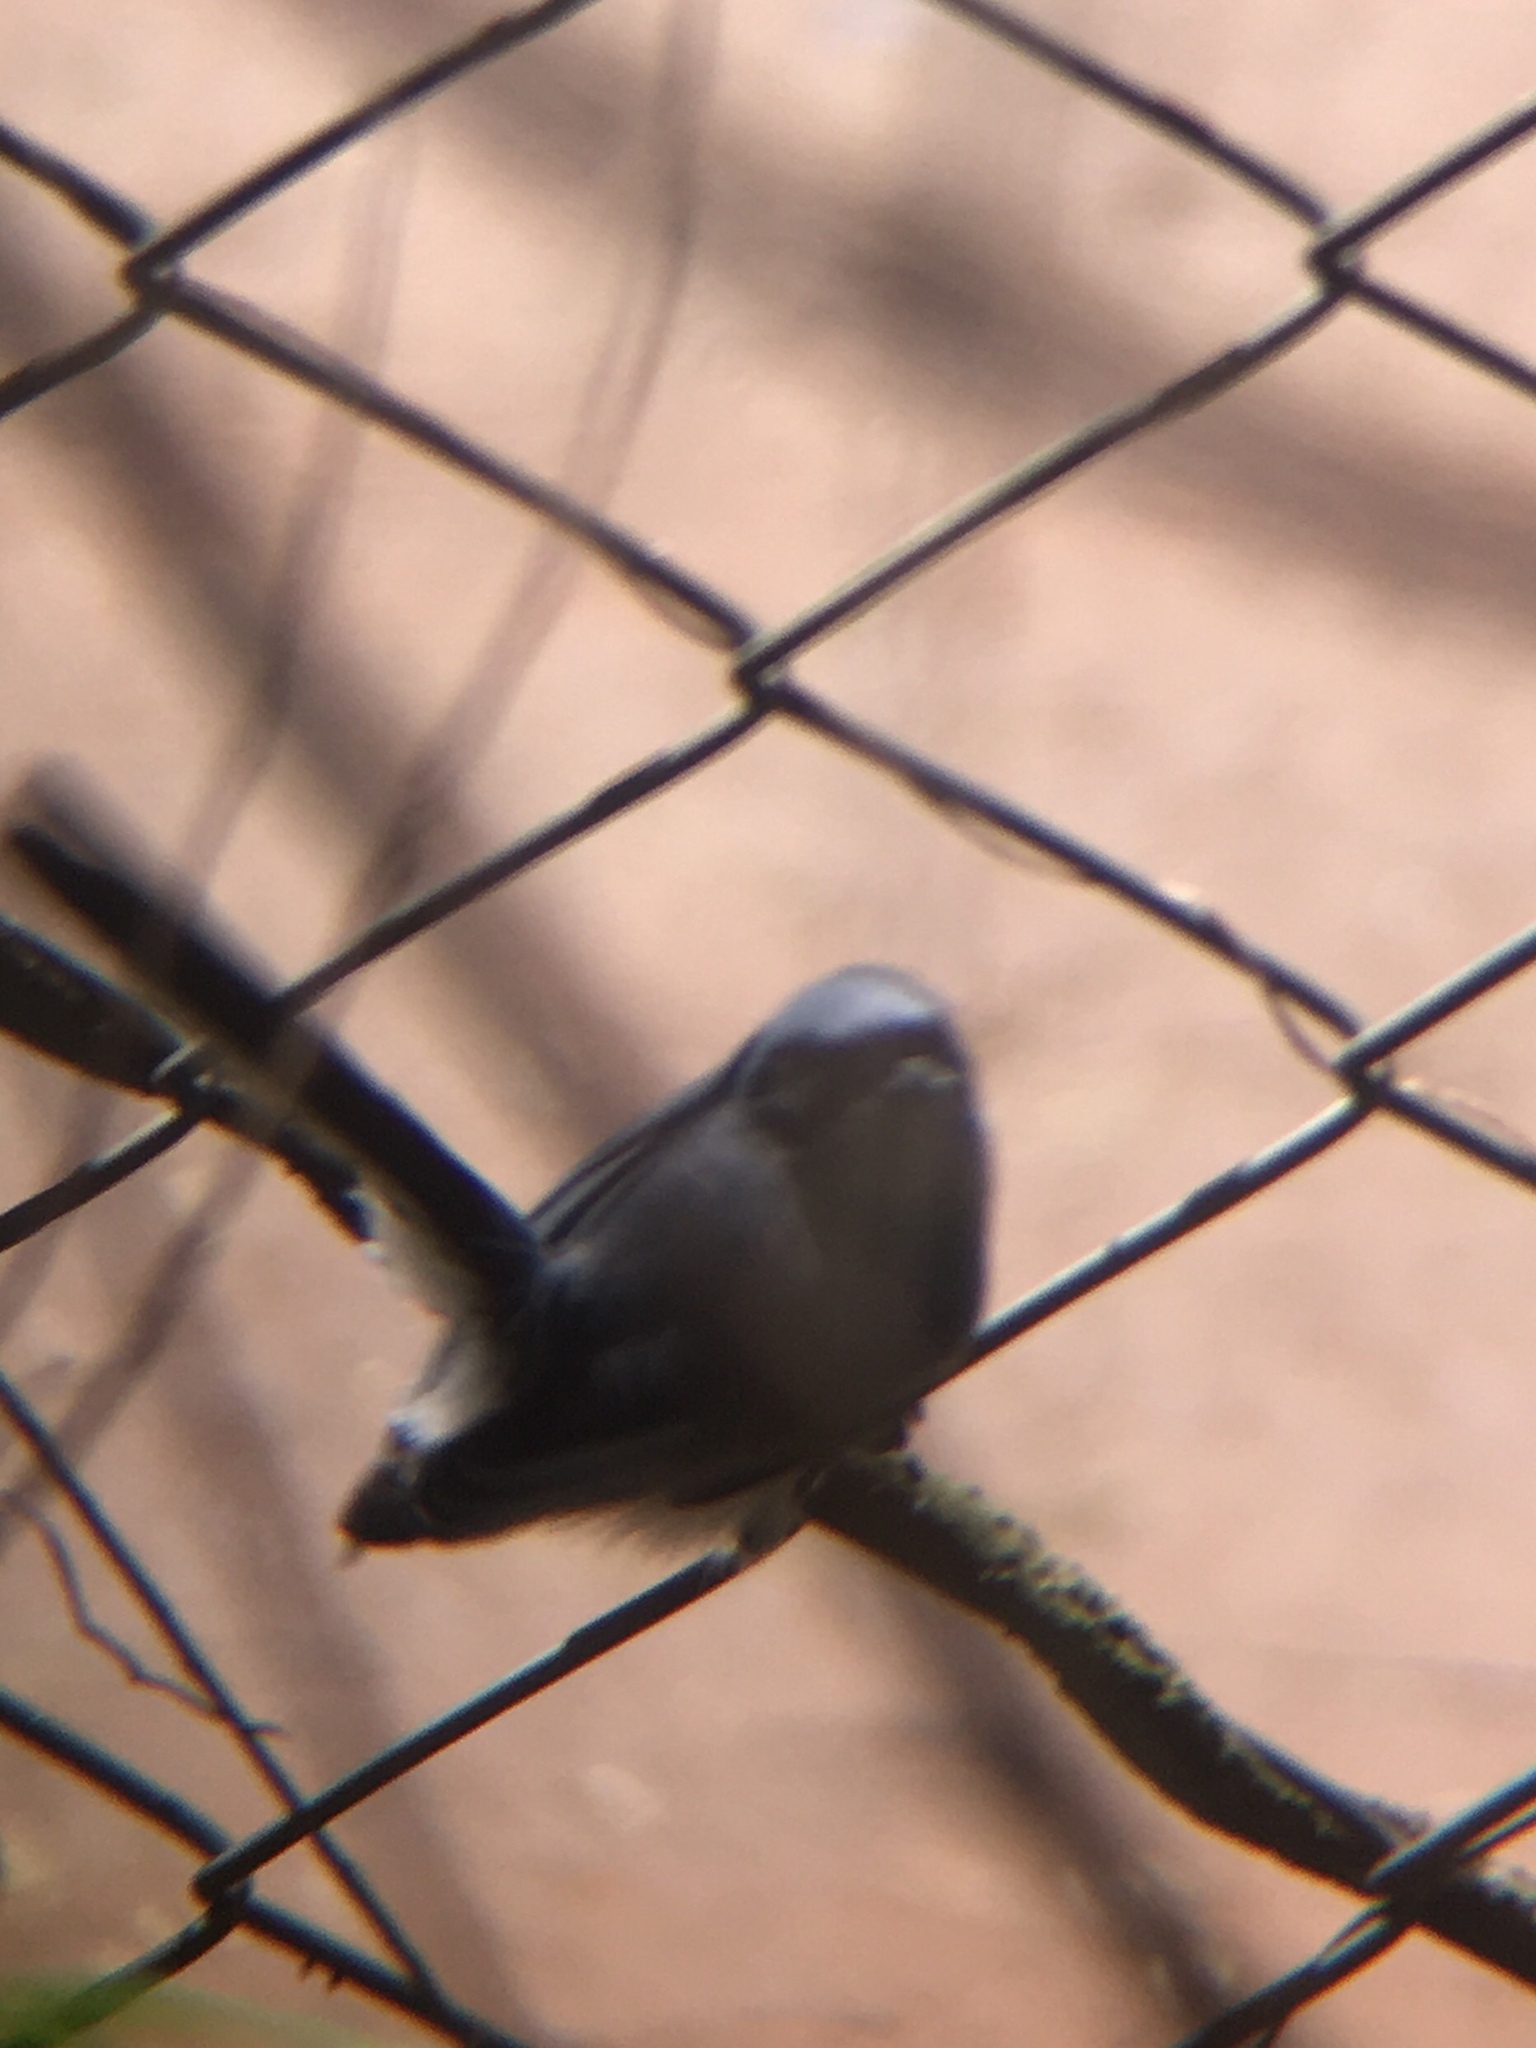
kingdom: Animalia
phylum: Chordata
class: Aves
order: Passeriformes
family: Polioptilidae
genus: Polioptila
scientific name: Polioptila dumicola
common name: Masked gnatcatcher
